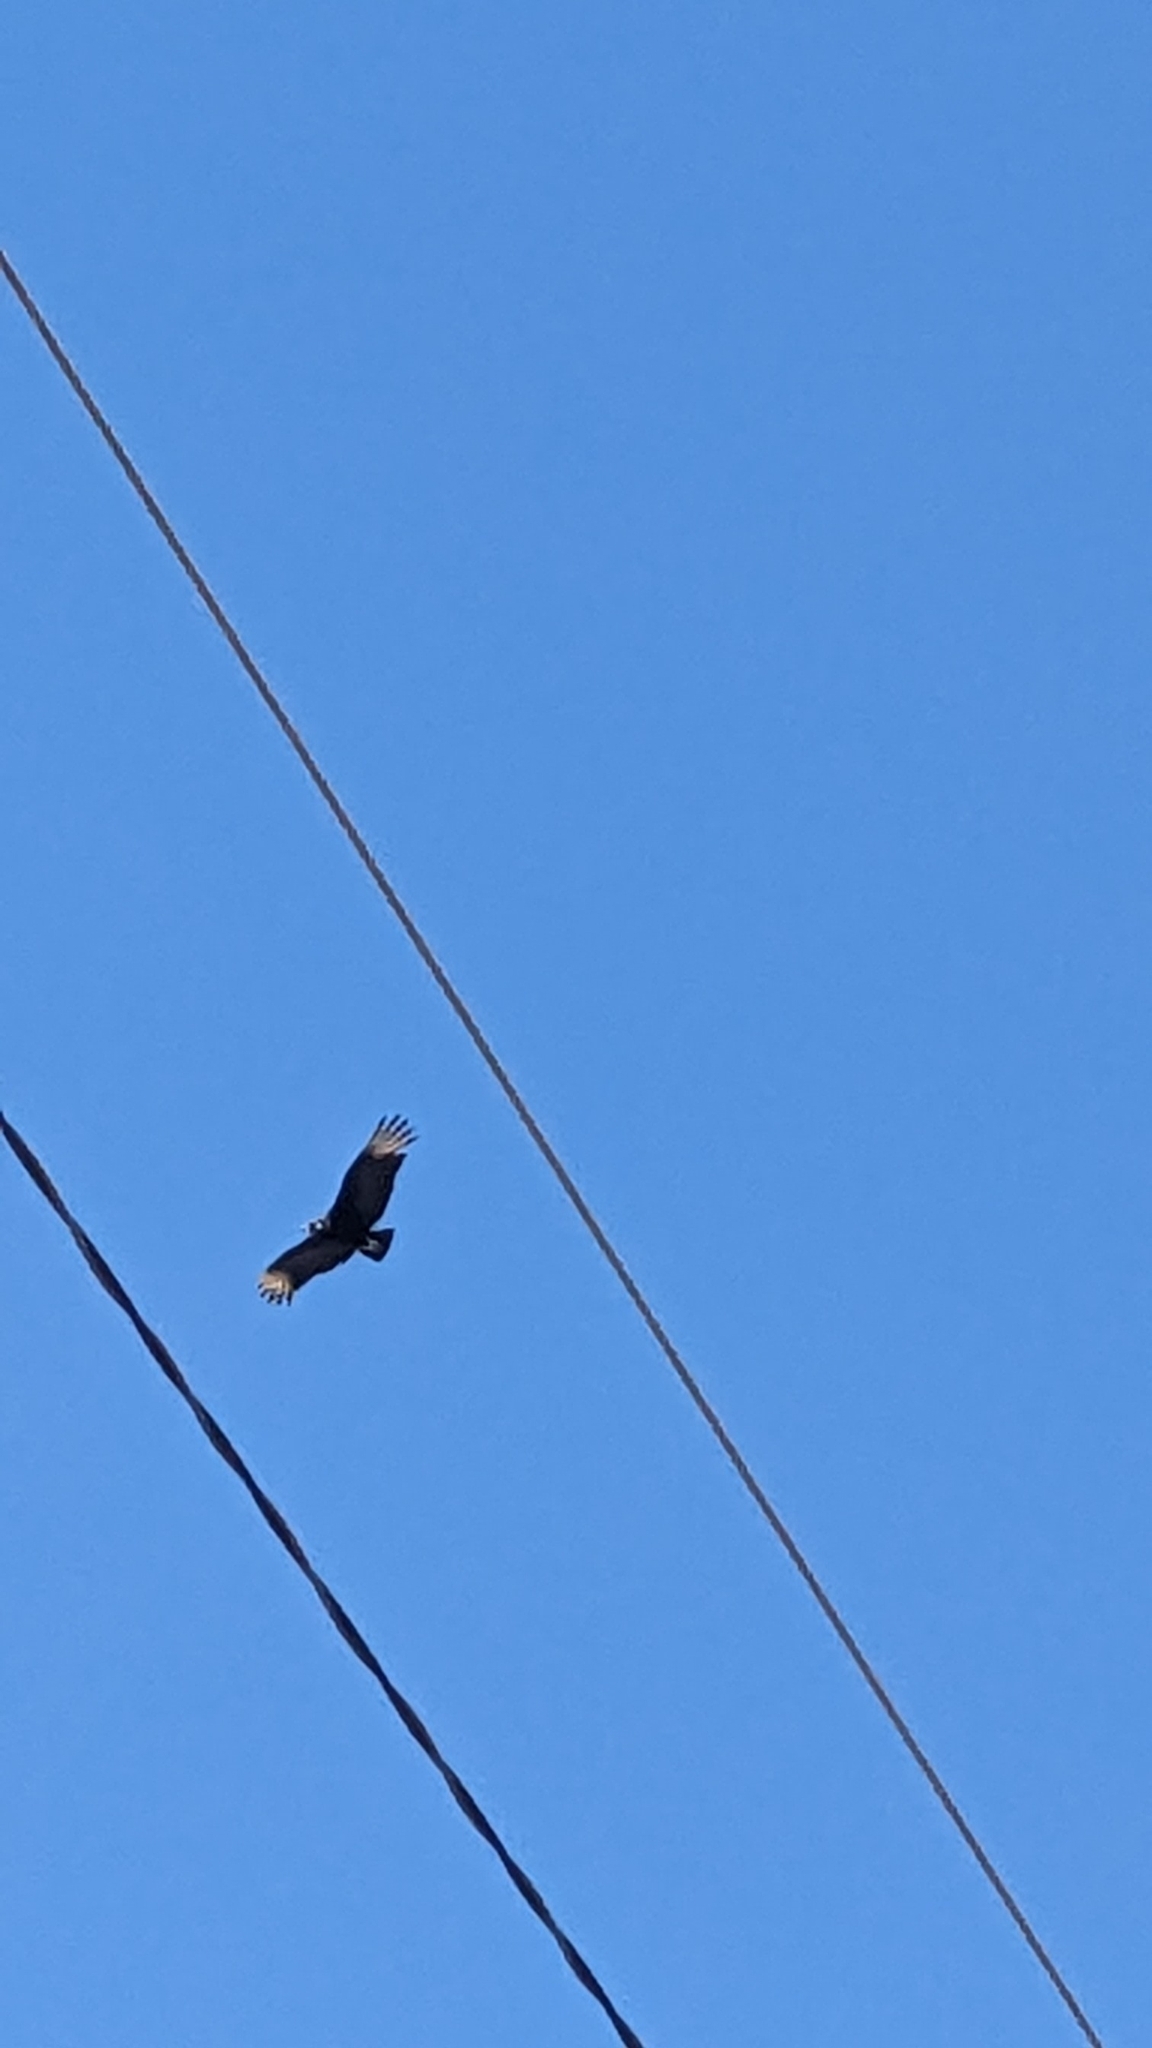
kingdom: Animalia
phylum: Chordata
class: Aves
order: Accipitriformes
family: Cathartidae
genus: Coragyps
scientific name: Coragyps atratus
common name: Black vulture
